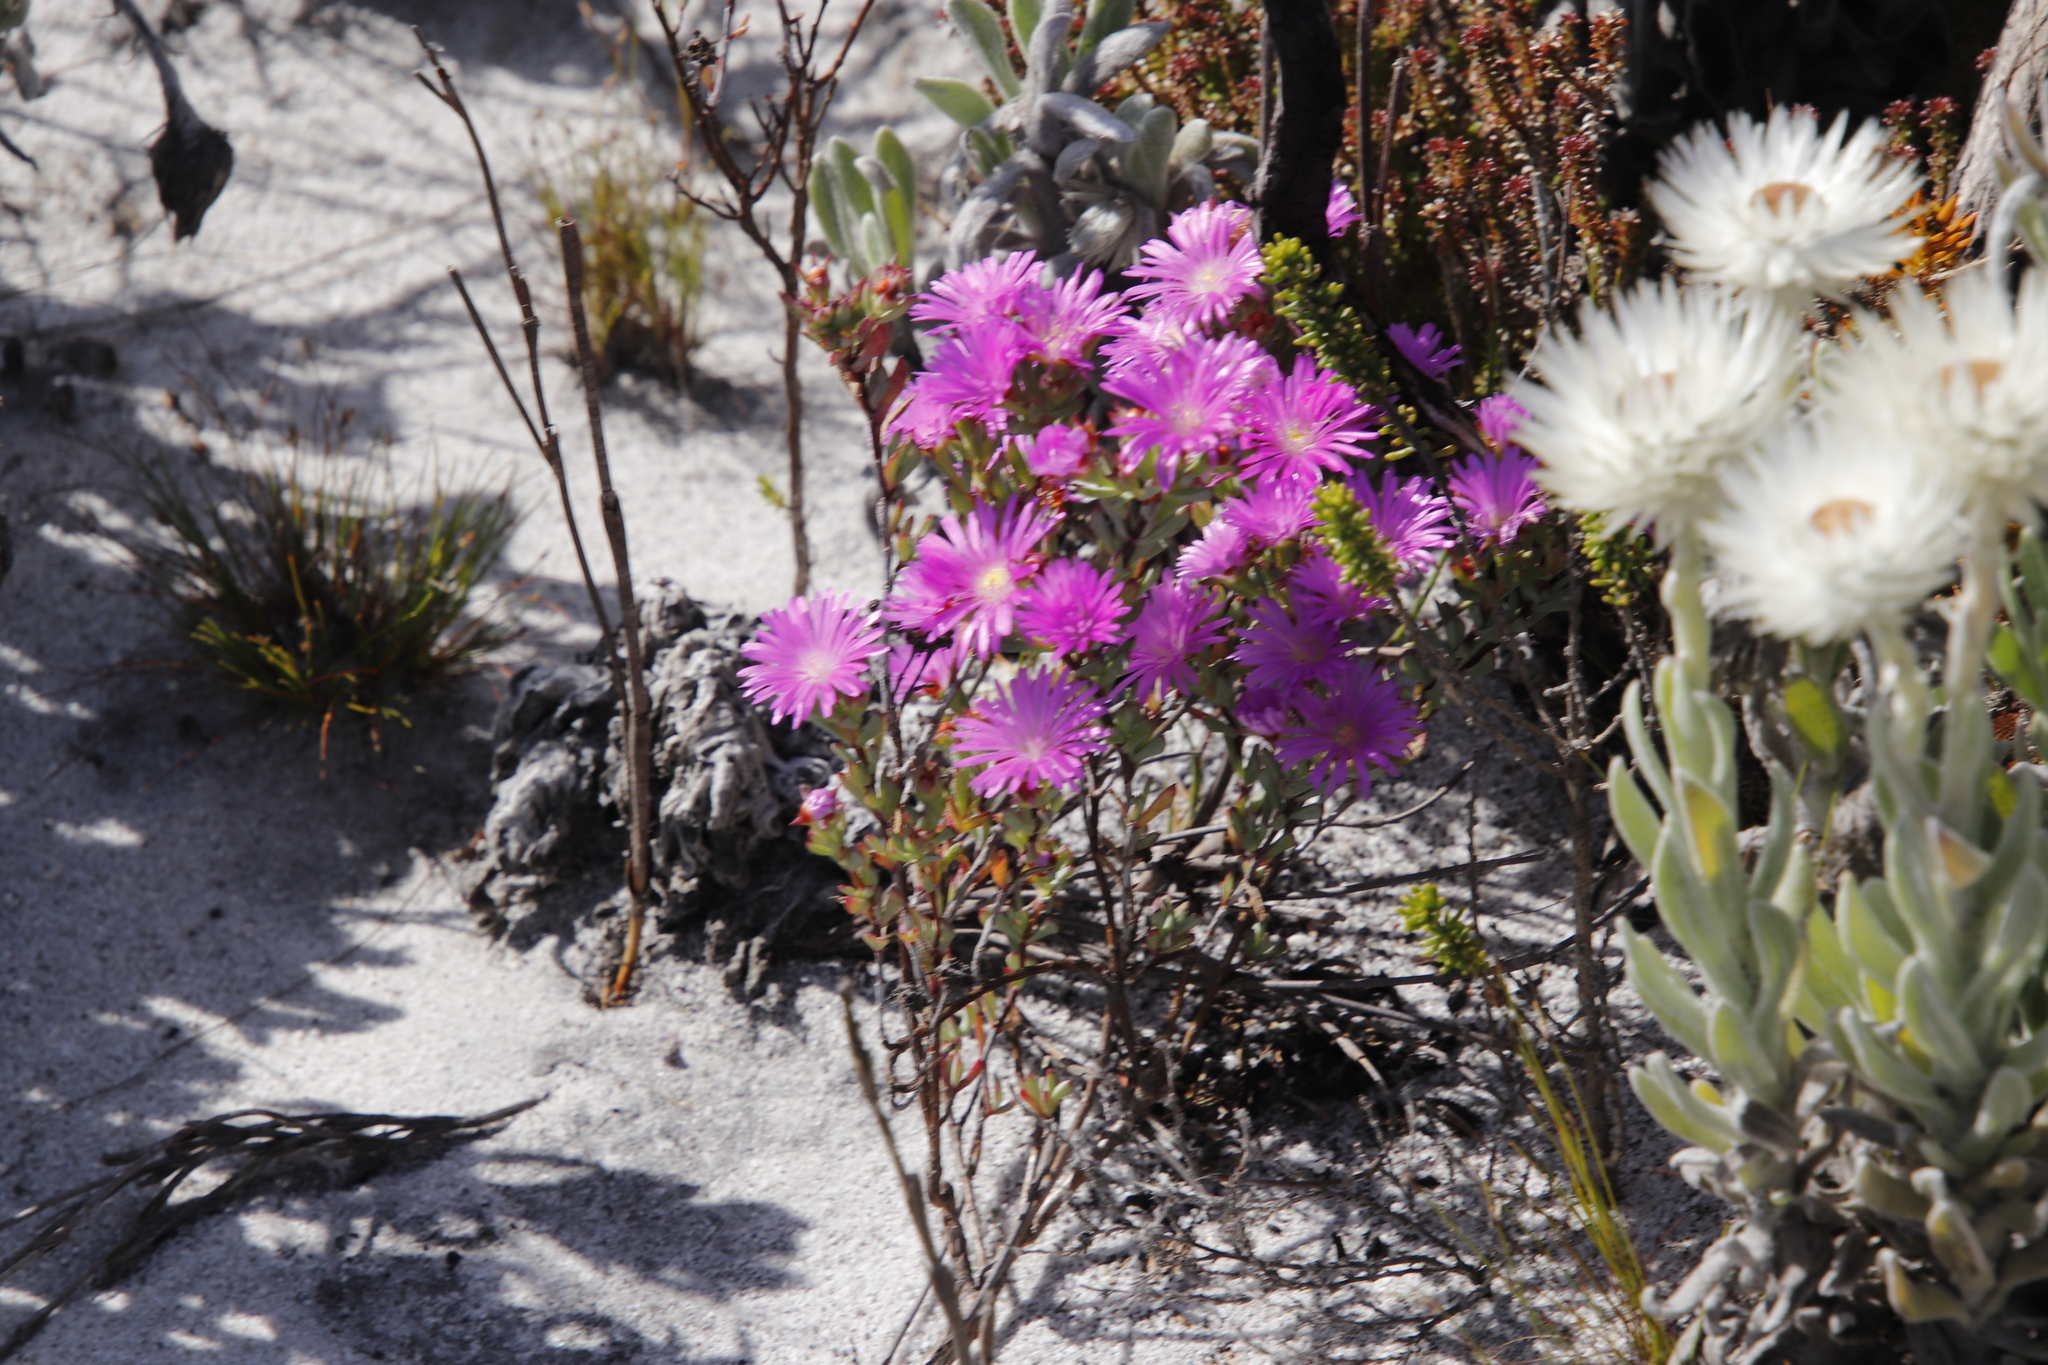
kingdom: Plantae
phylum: Tracheophyta
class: Magnoliopsida
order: Caryophyllales
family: Aizoaceae
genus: Lampranthus
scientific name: Lampranthus glomeratus
